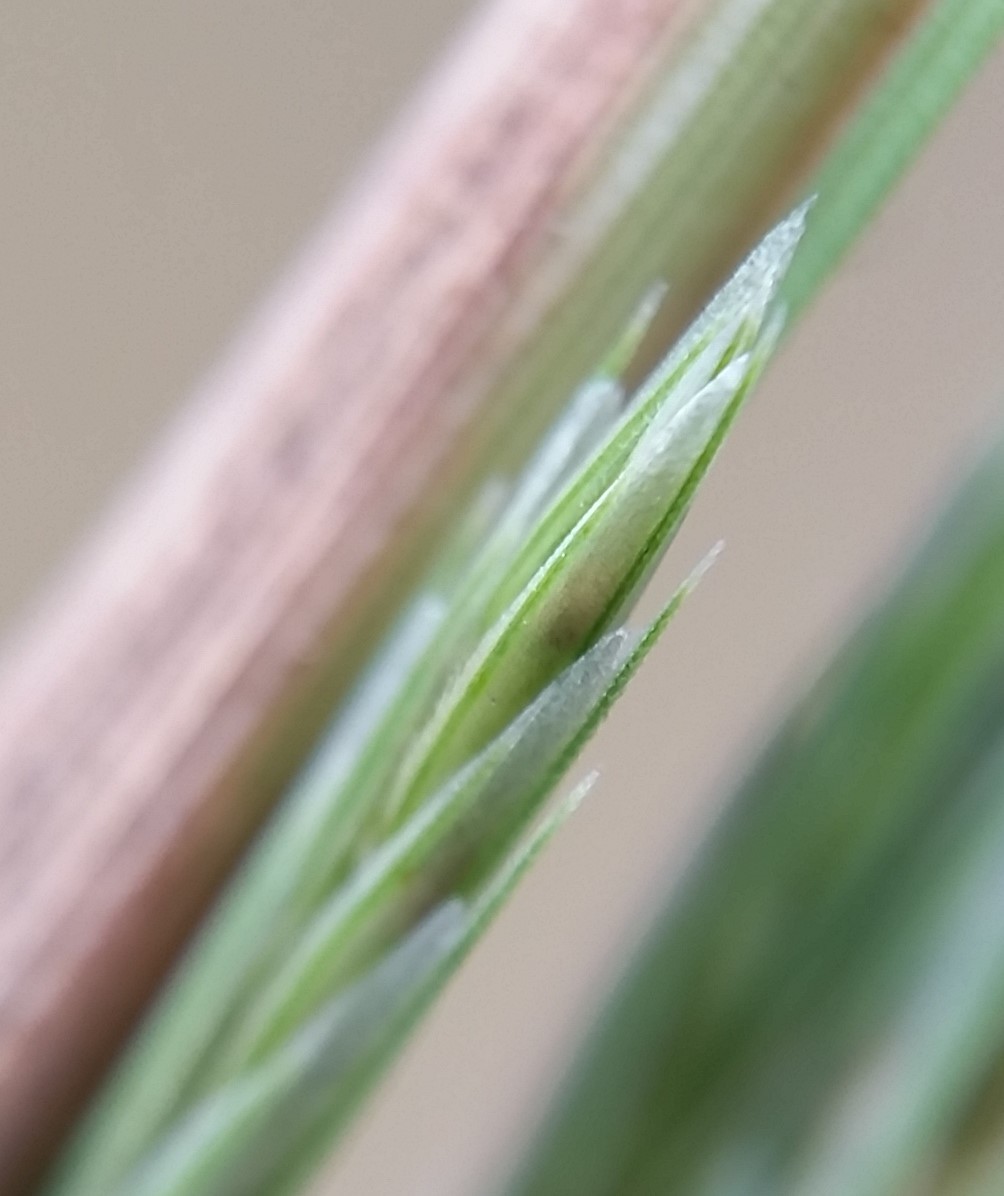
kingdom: Plantae
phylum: Tracheophyta
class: Liliopsida
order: Poales
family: Poaceae
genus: Diplachne
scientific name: Diplachne fusca
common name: Brown beetle grass
